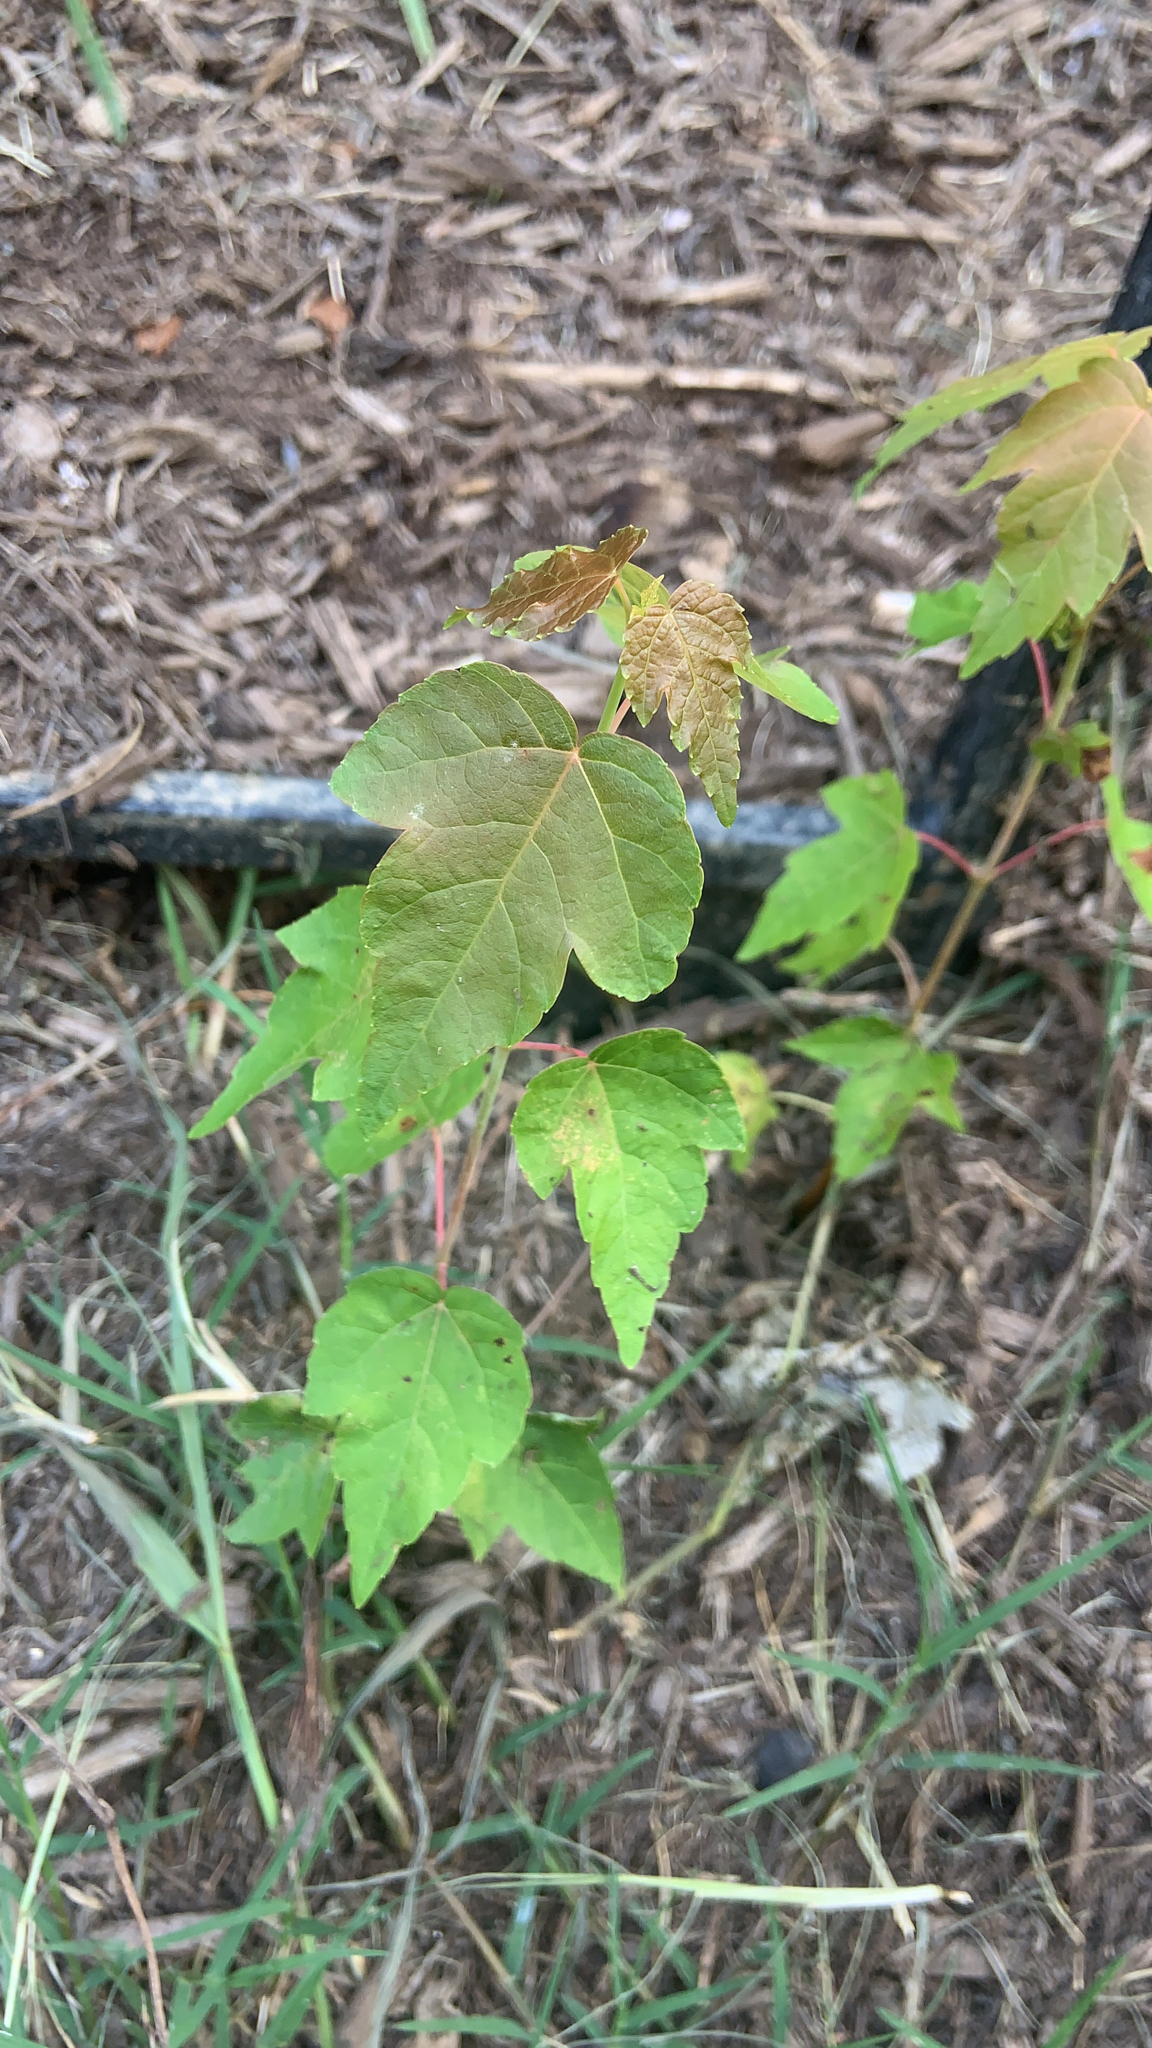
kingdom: Plantae
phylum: Tracheophyta
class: Magnoliopsida
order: Sapindales
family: Sapindaceae
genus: Acer
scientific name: Acer rubrum
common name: Red maple
